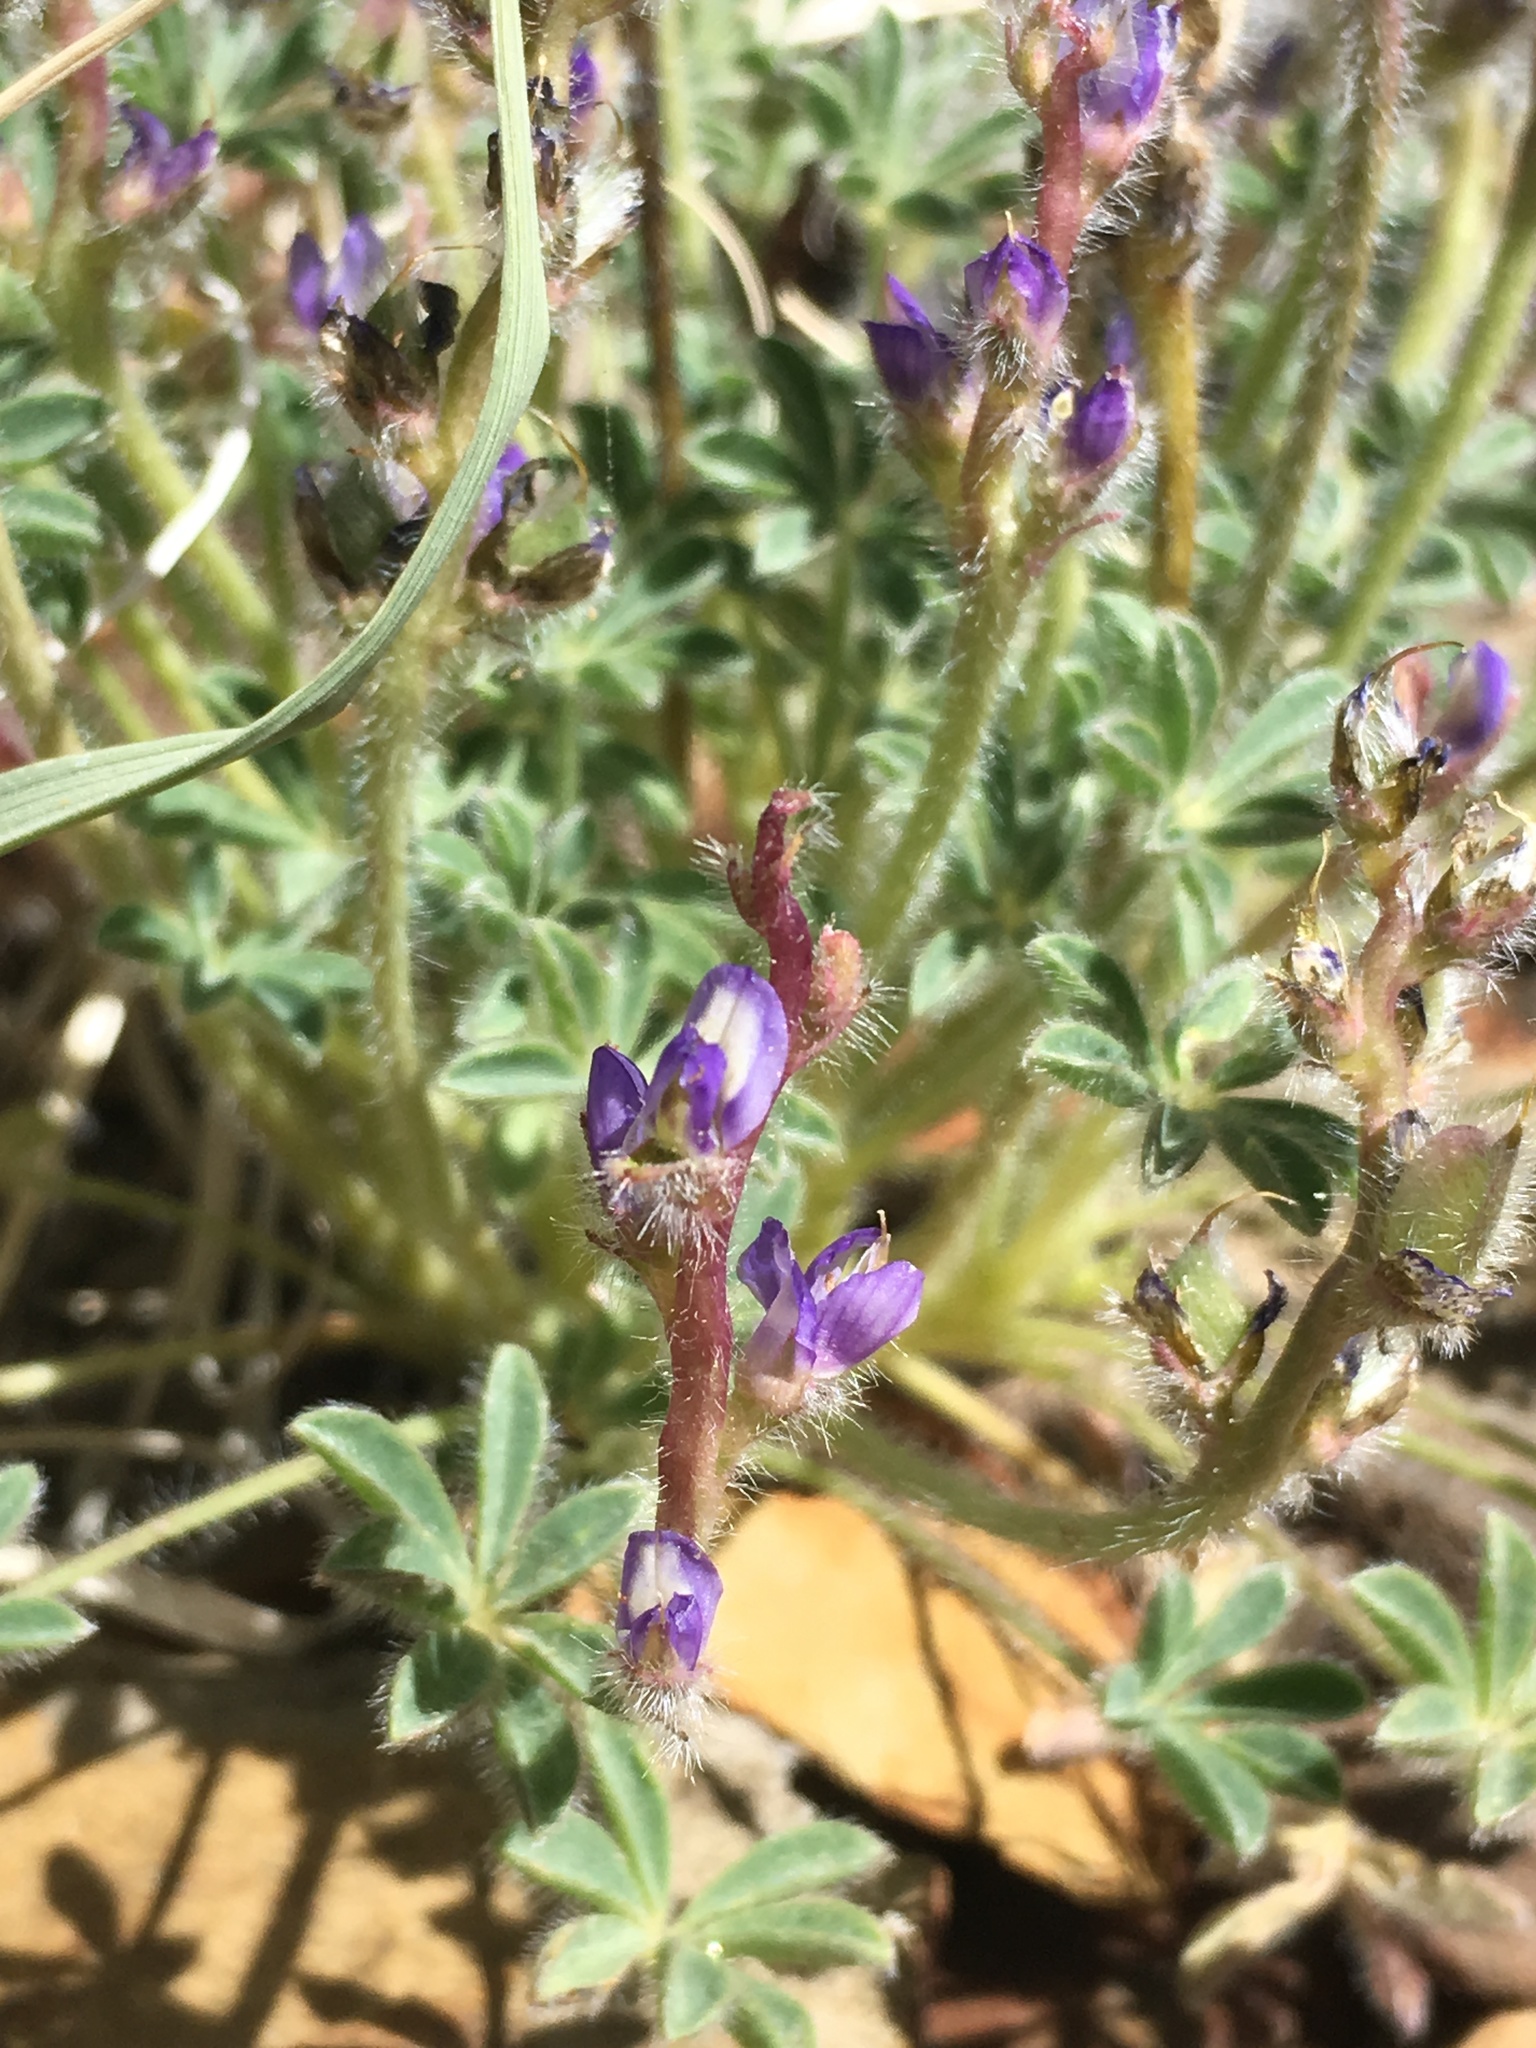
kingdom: Plantae
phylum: Tracheophyta
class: Magnoliopsida
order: Fabales
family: Fabaceae
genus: Lupinus
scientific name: Lupinus shockleyi
